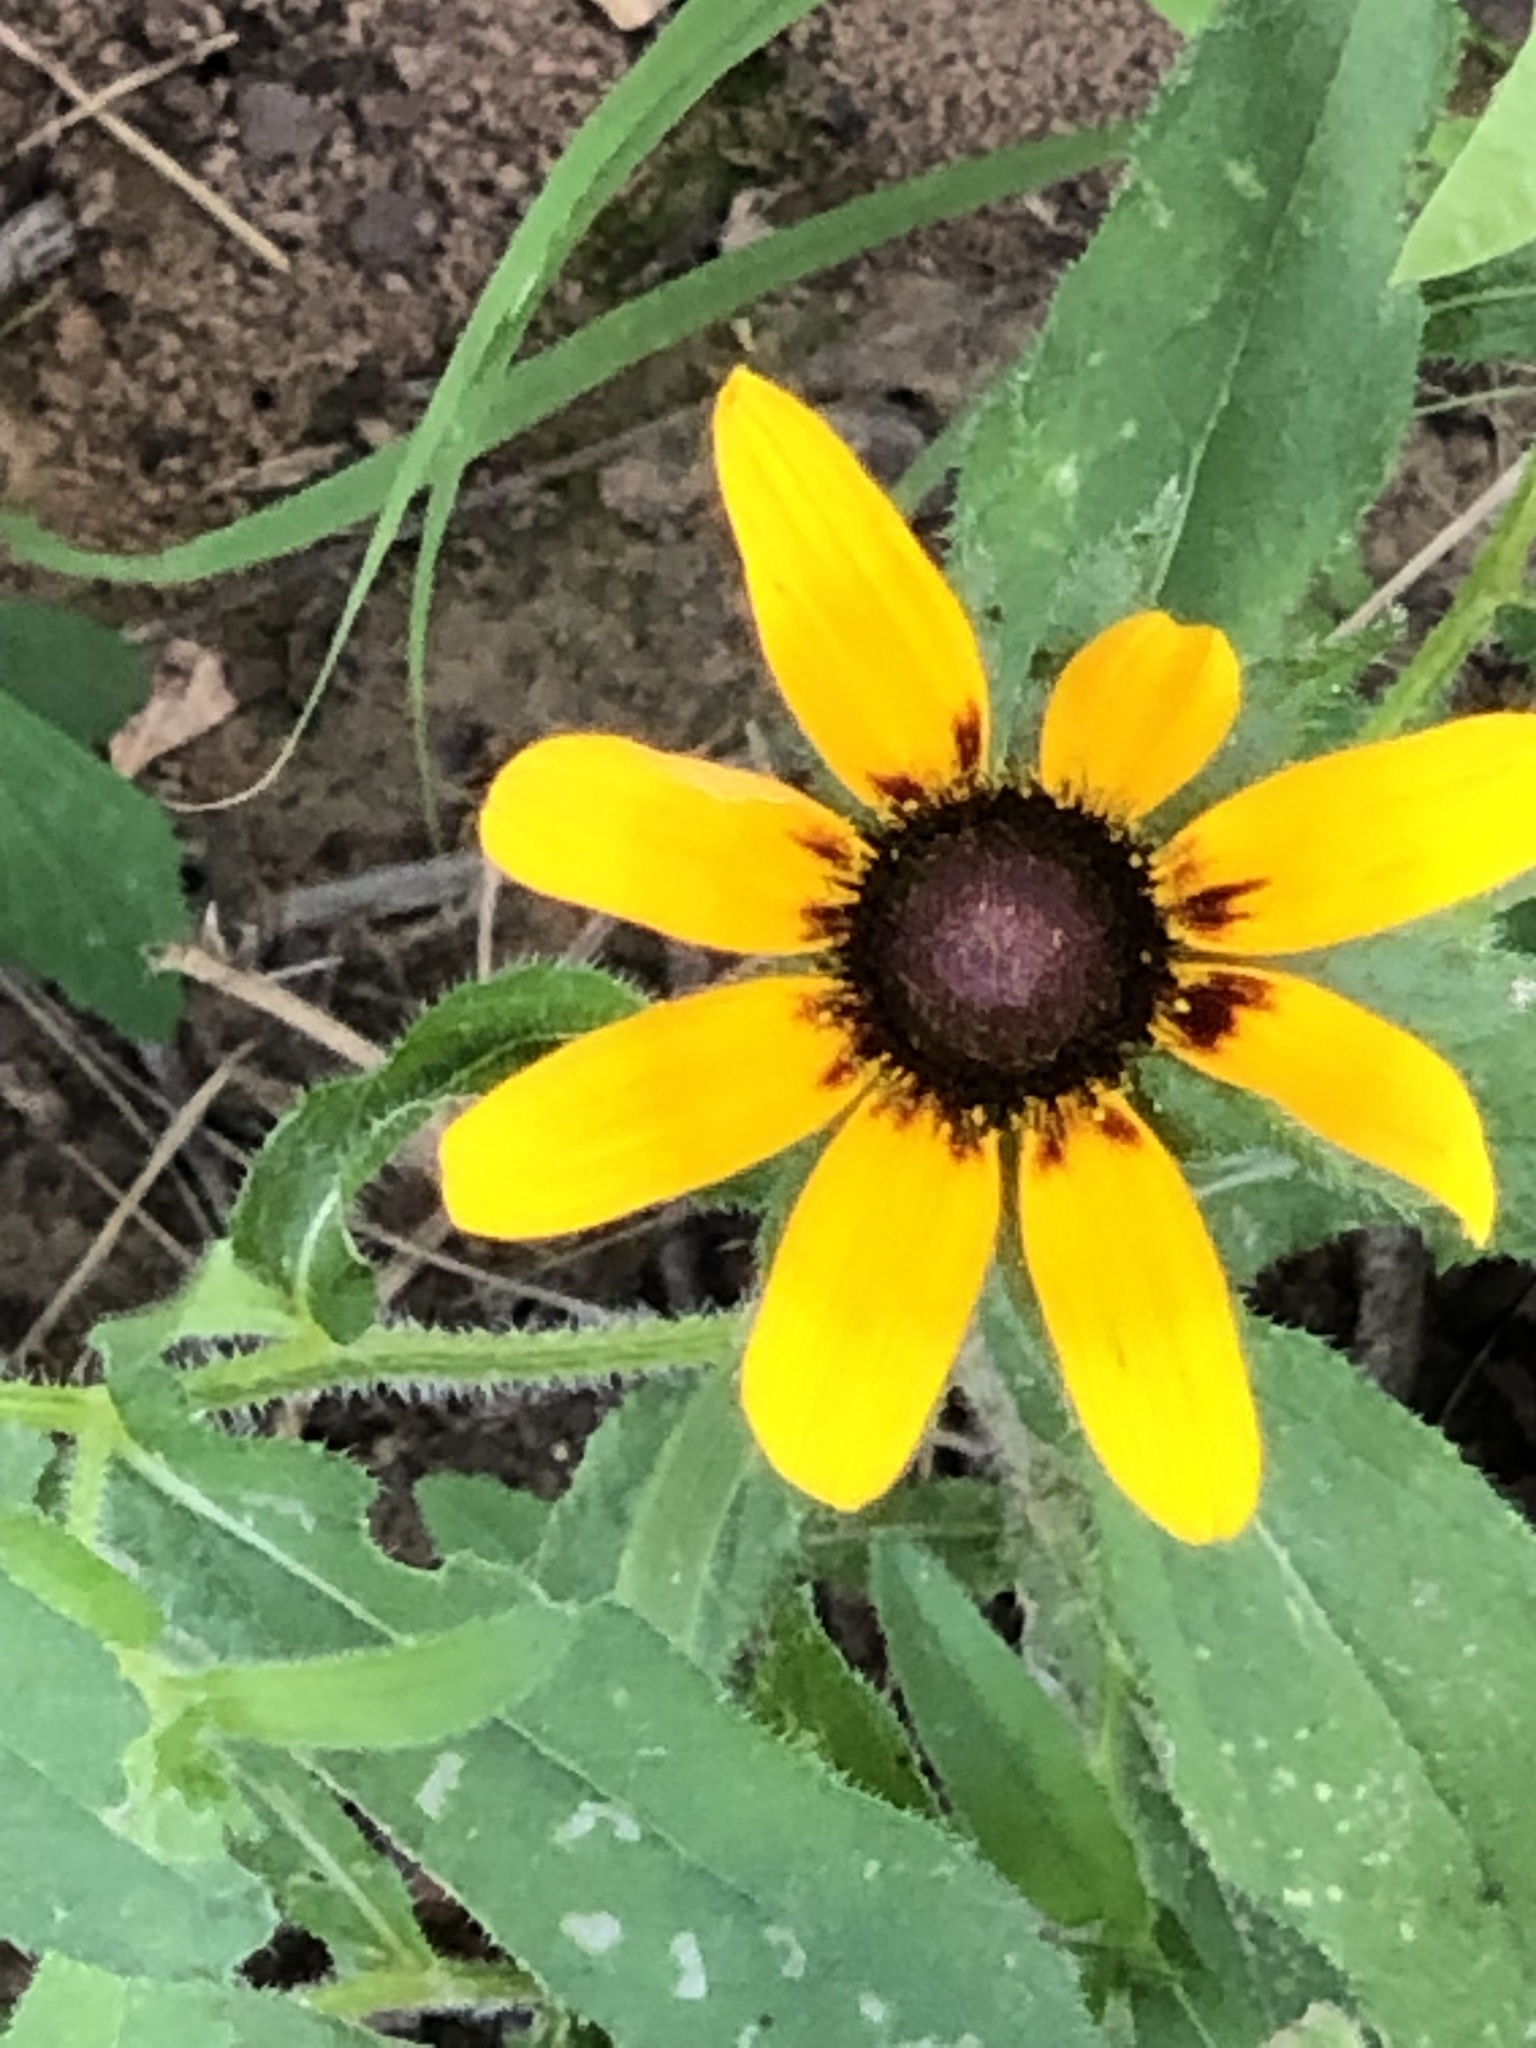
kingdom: Plantae
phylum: Tracheophyta
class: Magnoliopsida
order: Asterales
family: Asteraceae
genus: Rudbeckia
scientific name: Rudbeckia hirta
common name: Black-eyed-susan
